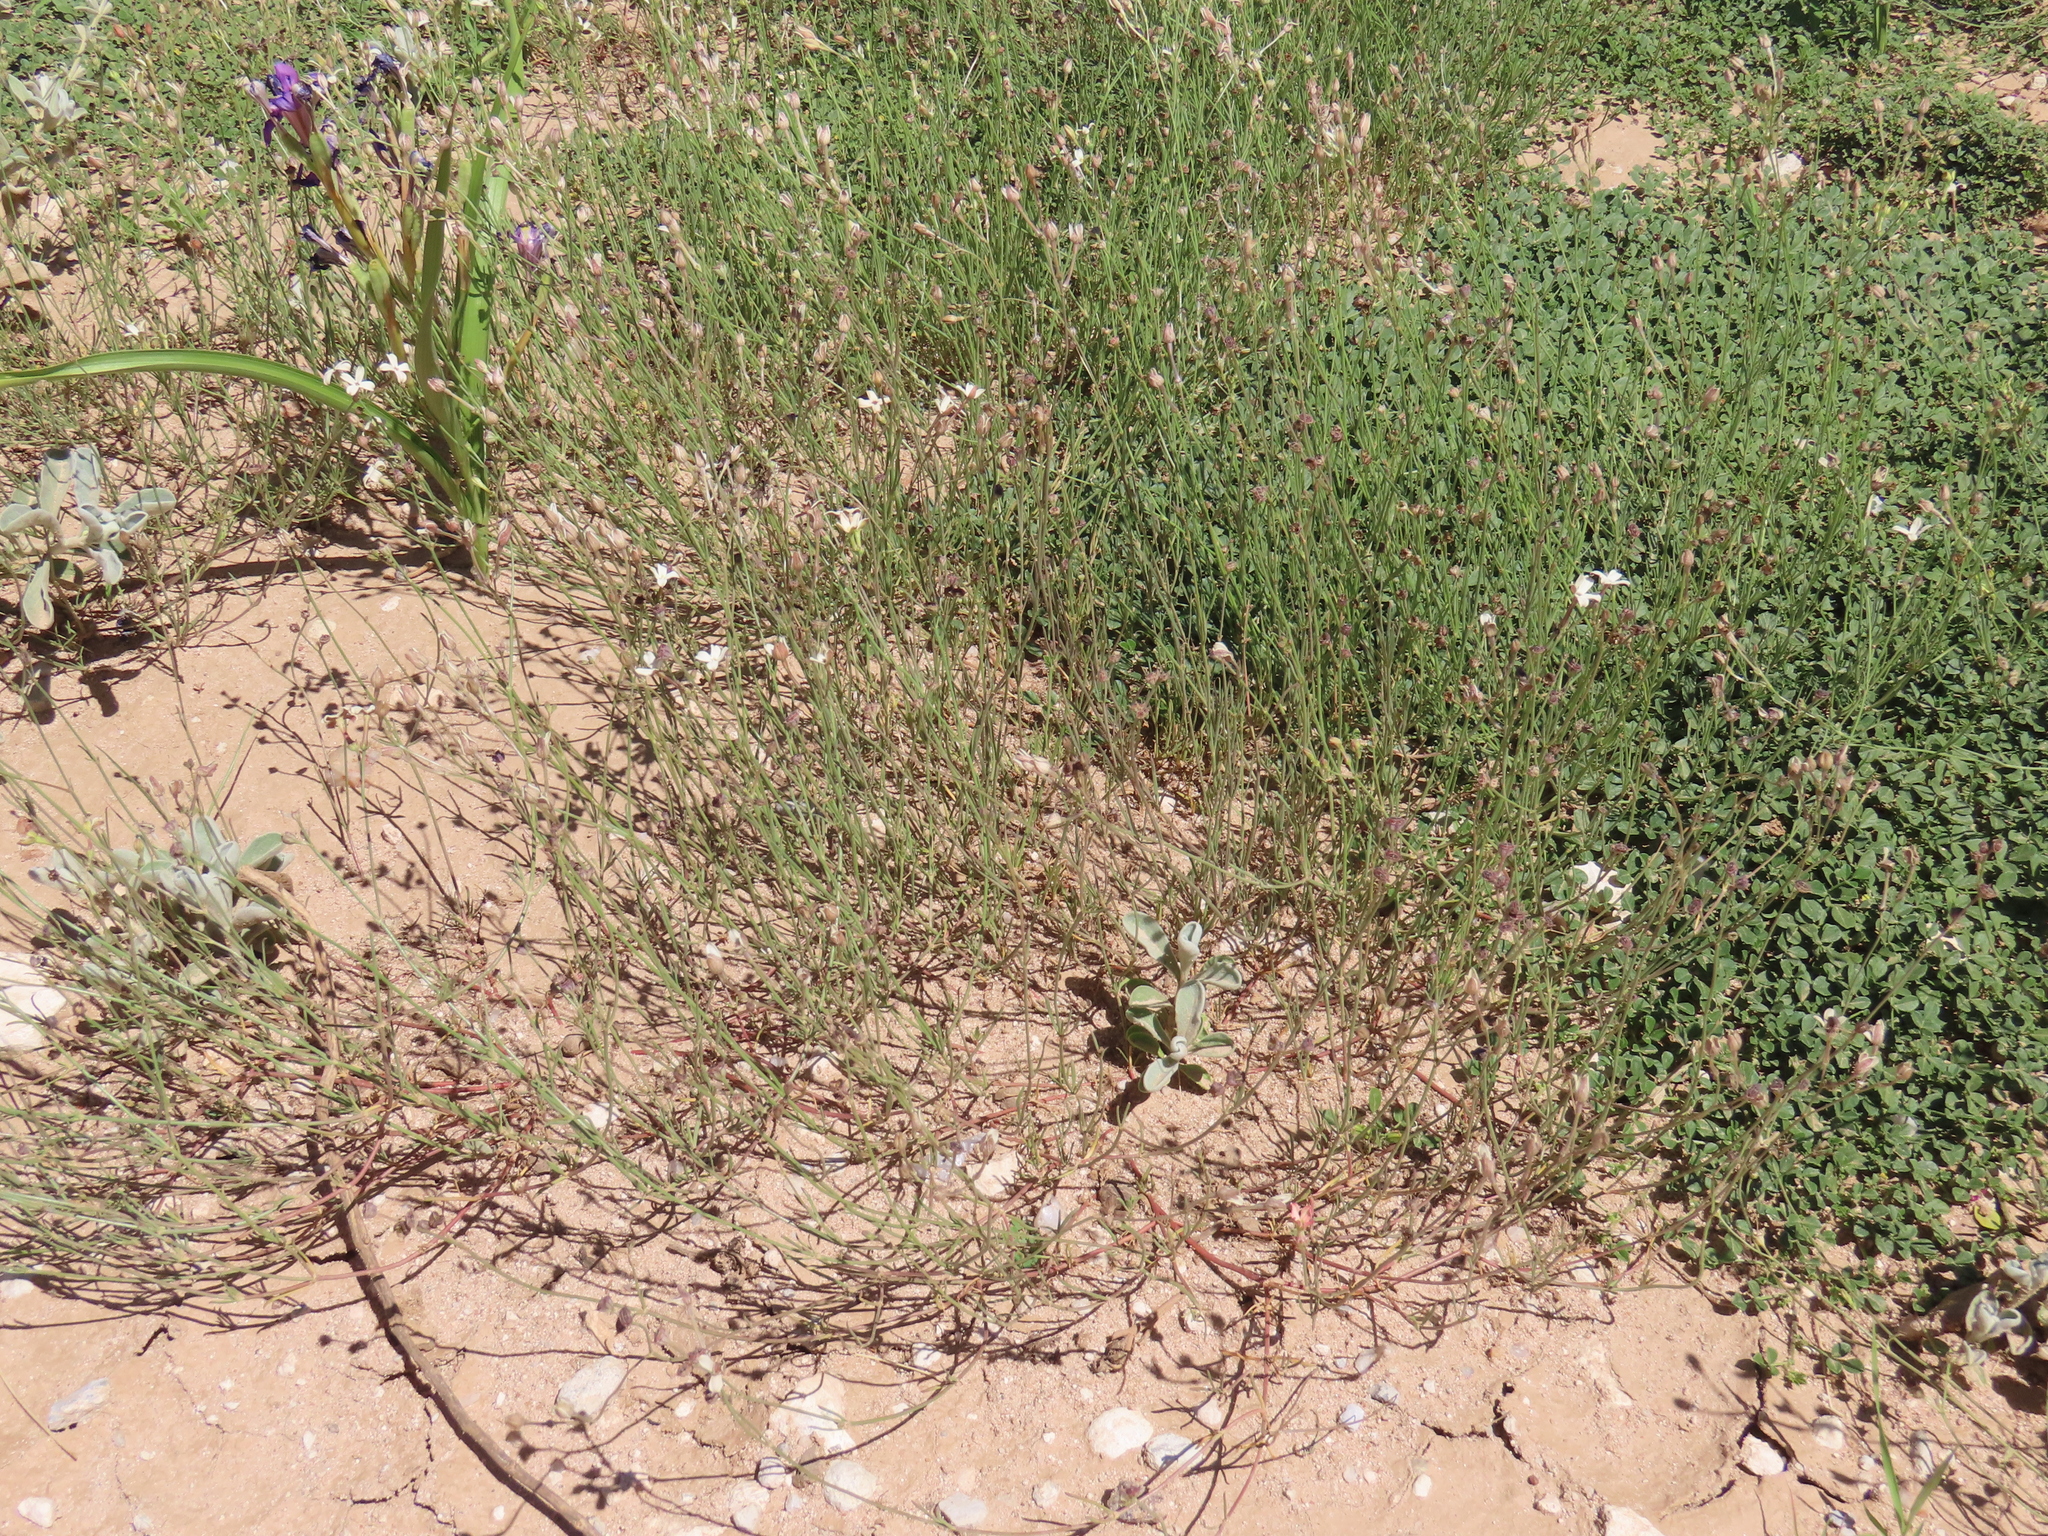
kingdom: Plantae
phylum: Tracheophyta
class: Magnoliopsida
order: Gentianales
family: Rubiaceae
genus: Kohautia
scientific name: Kohautia cynanchica
